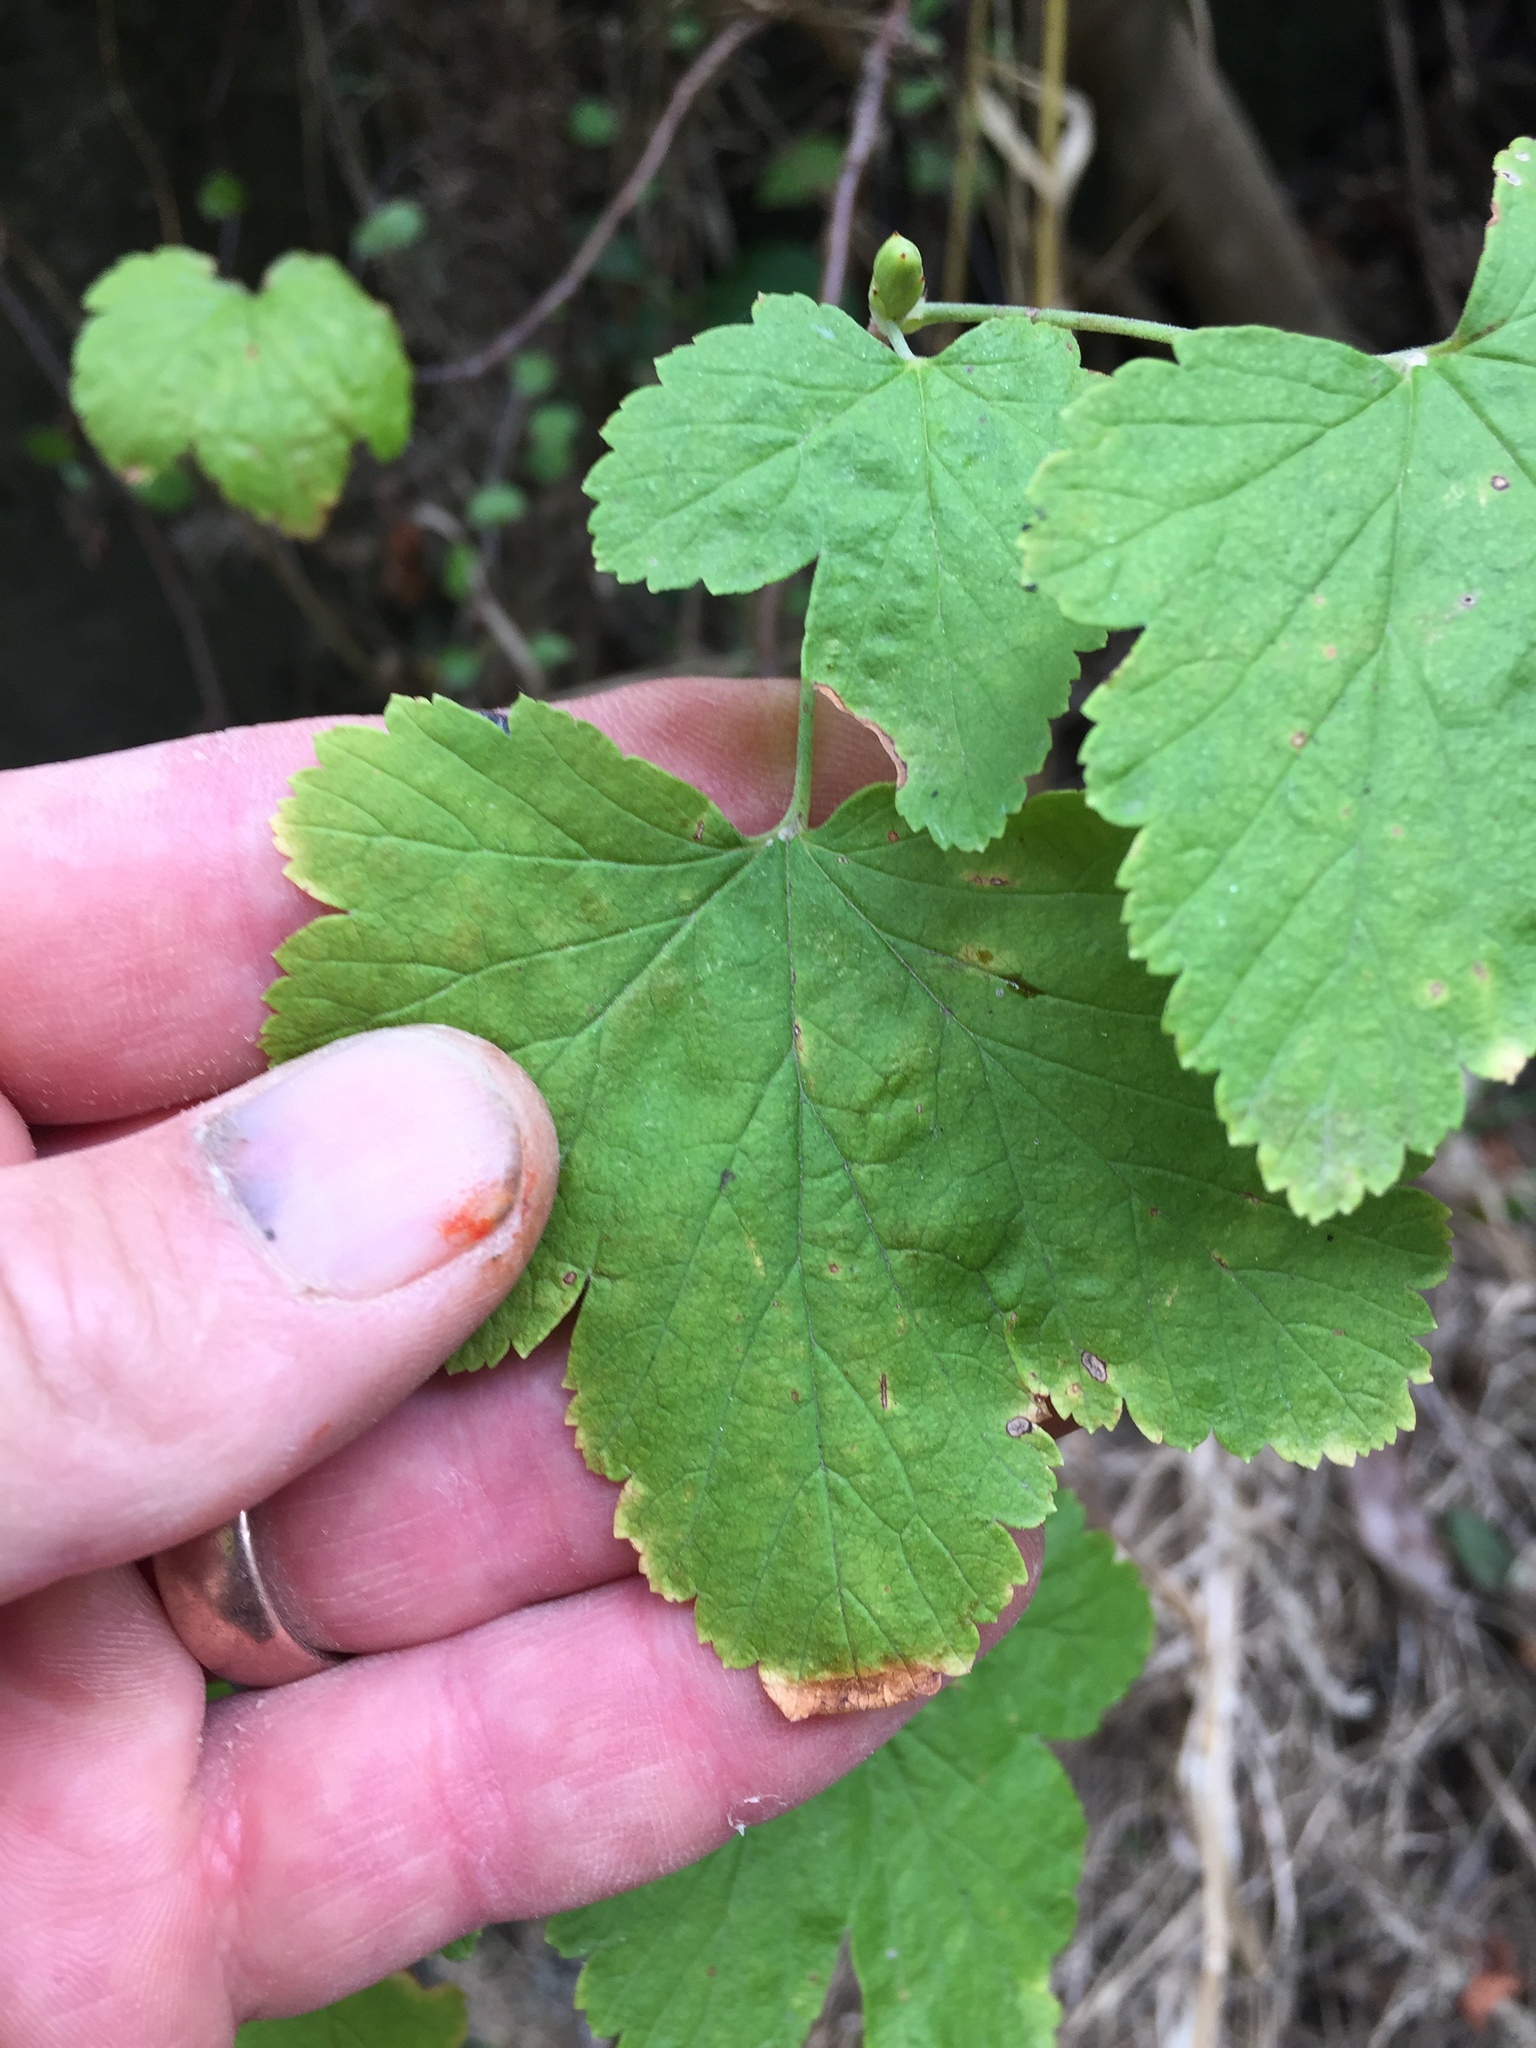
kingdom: Plantae
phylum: Tracheophyta
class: Magnoliopsida
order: Saxifragales
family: Grossulariaceae
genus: Ribes
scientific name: Ribes sanguineum
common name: Flowering currant
